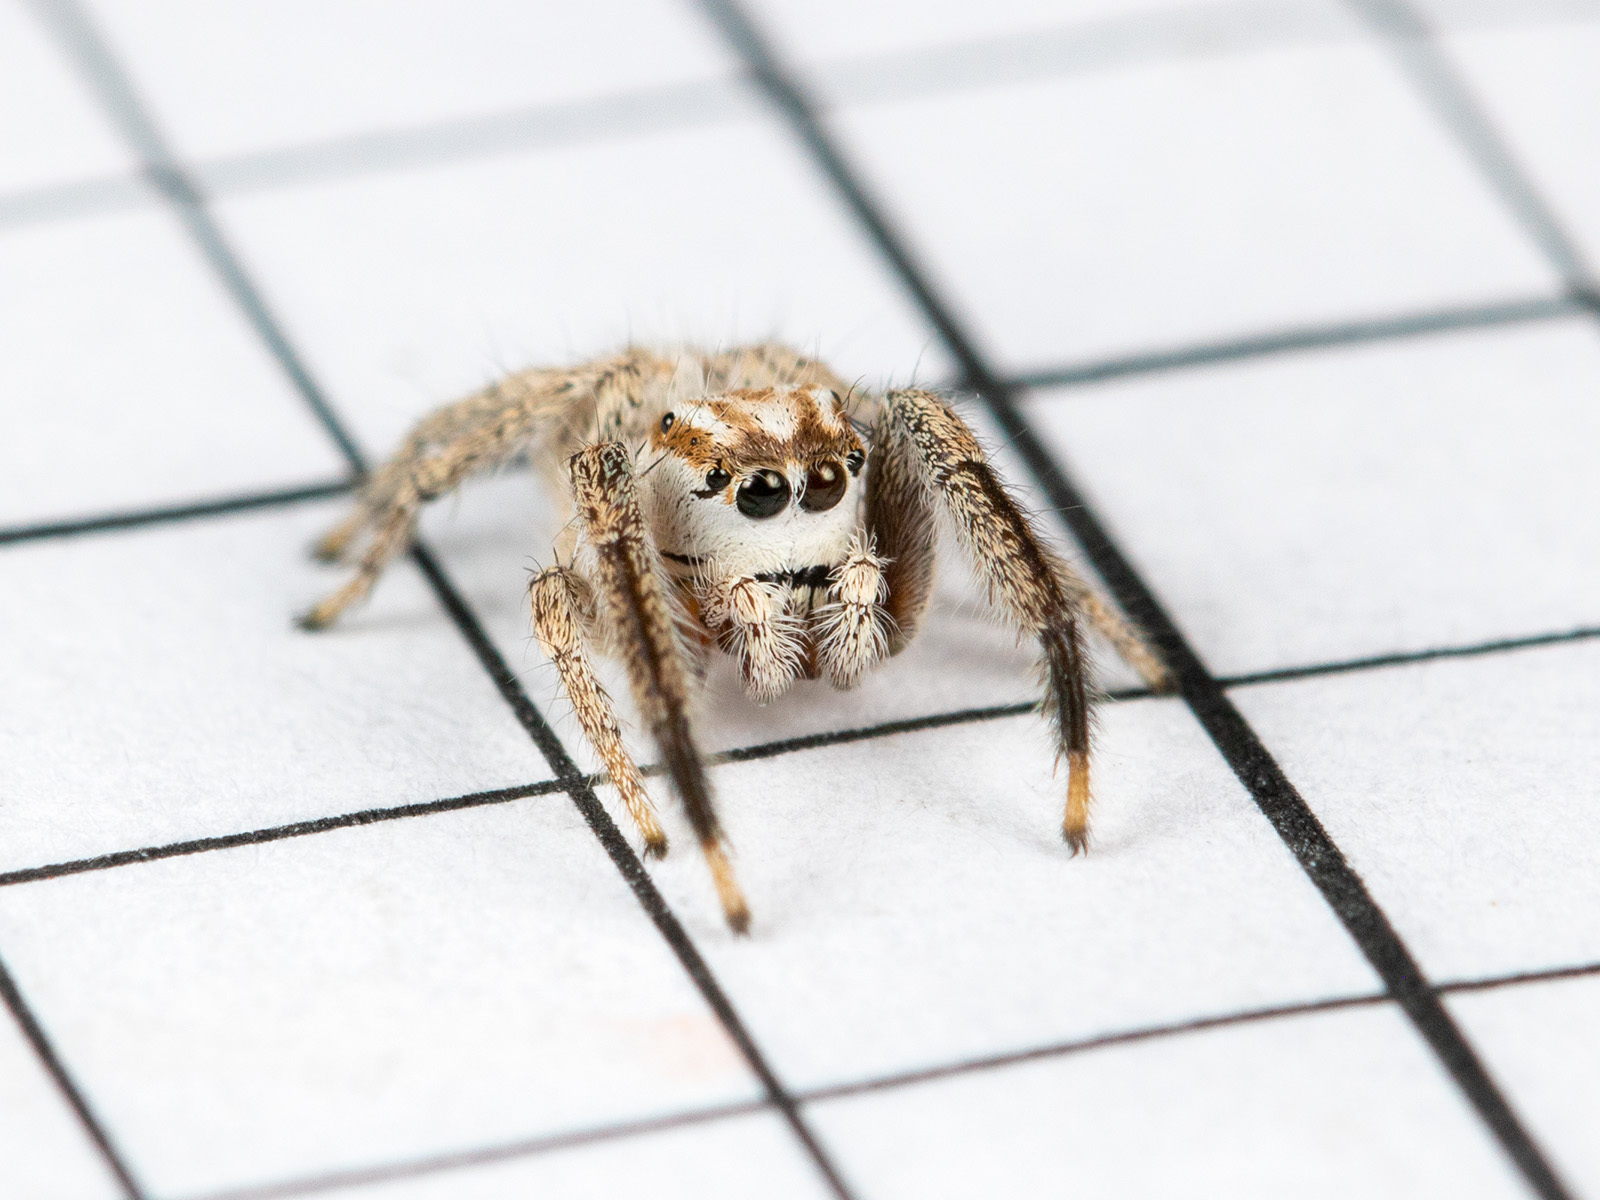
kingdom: Animalia
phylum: Arthropoda
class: Arachnida
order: Araneae
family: Salticidae
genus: Pellenes
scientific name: Pellenes dilutus
